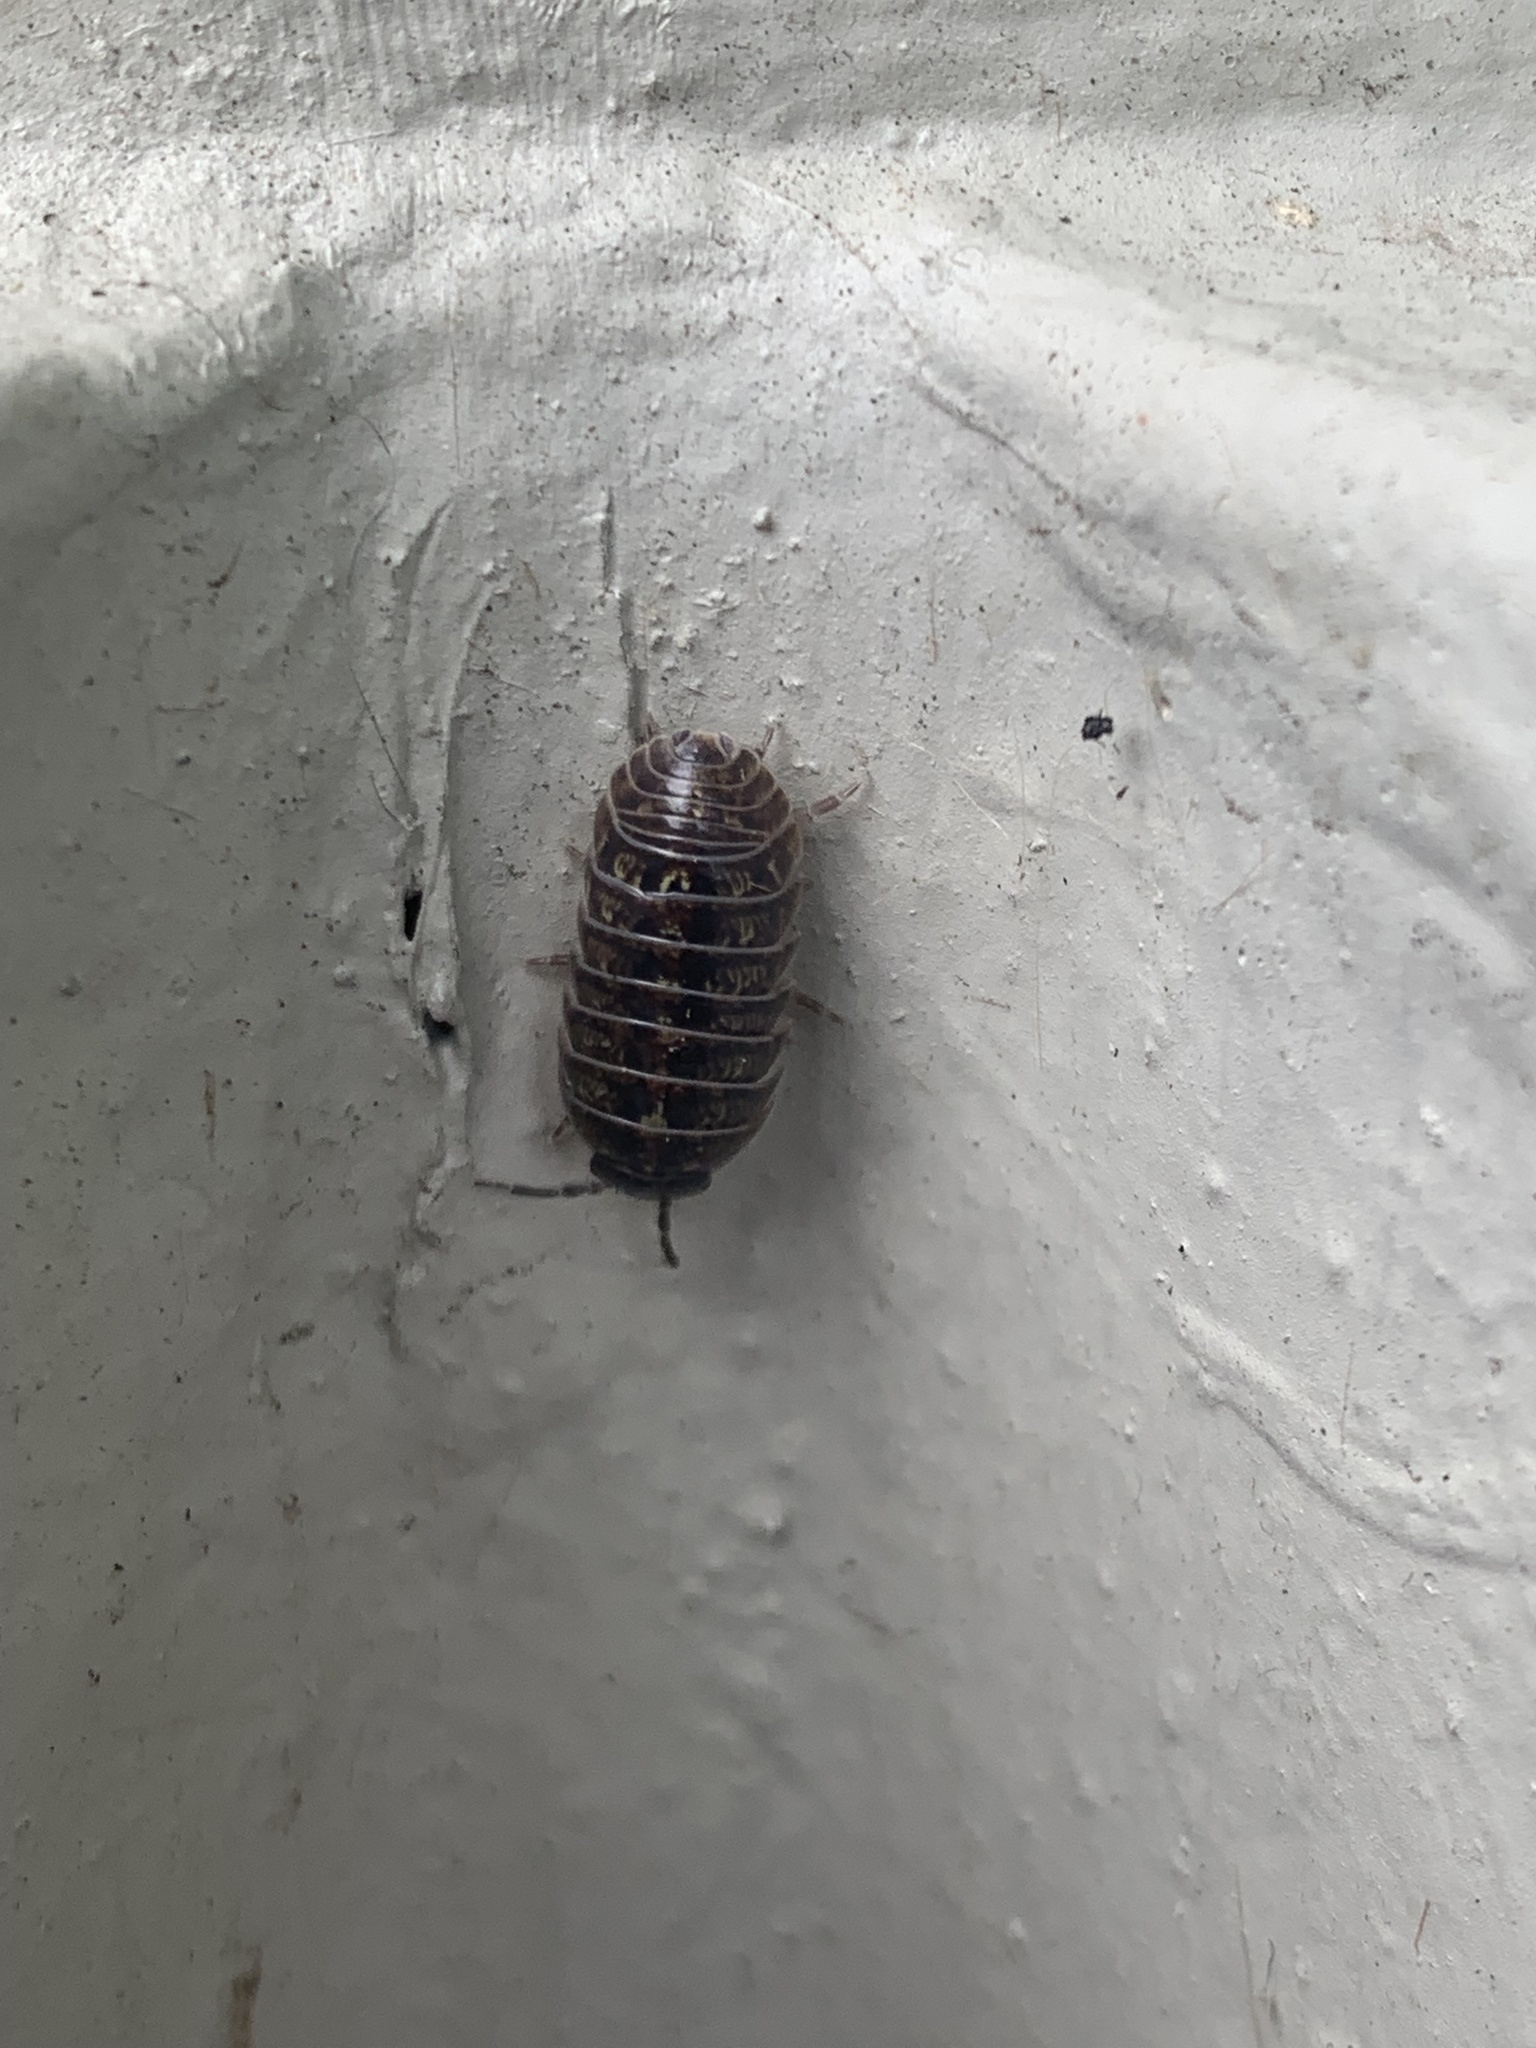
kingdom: Animalia
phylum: Arthropoda
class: Malacostraca
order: Isopoda
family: Armadillidiidae
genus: Armadillidium
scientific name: Armadillidium vulgare
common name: Common pill woodlouse
